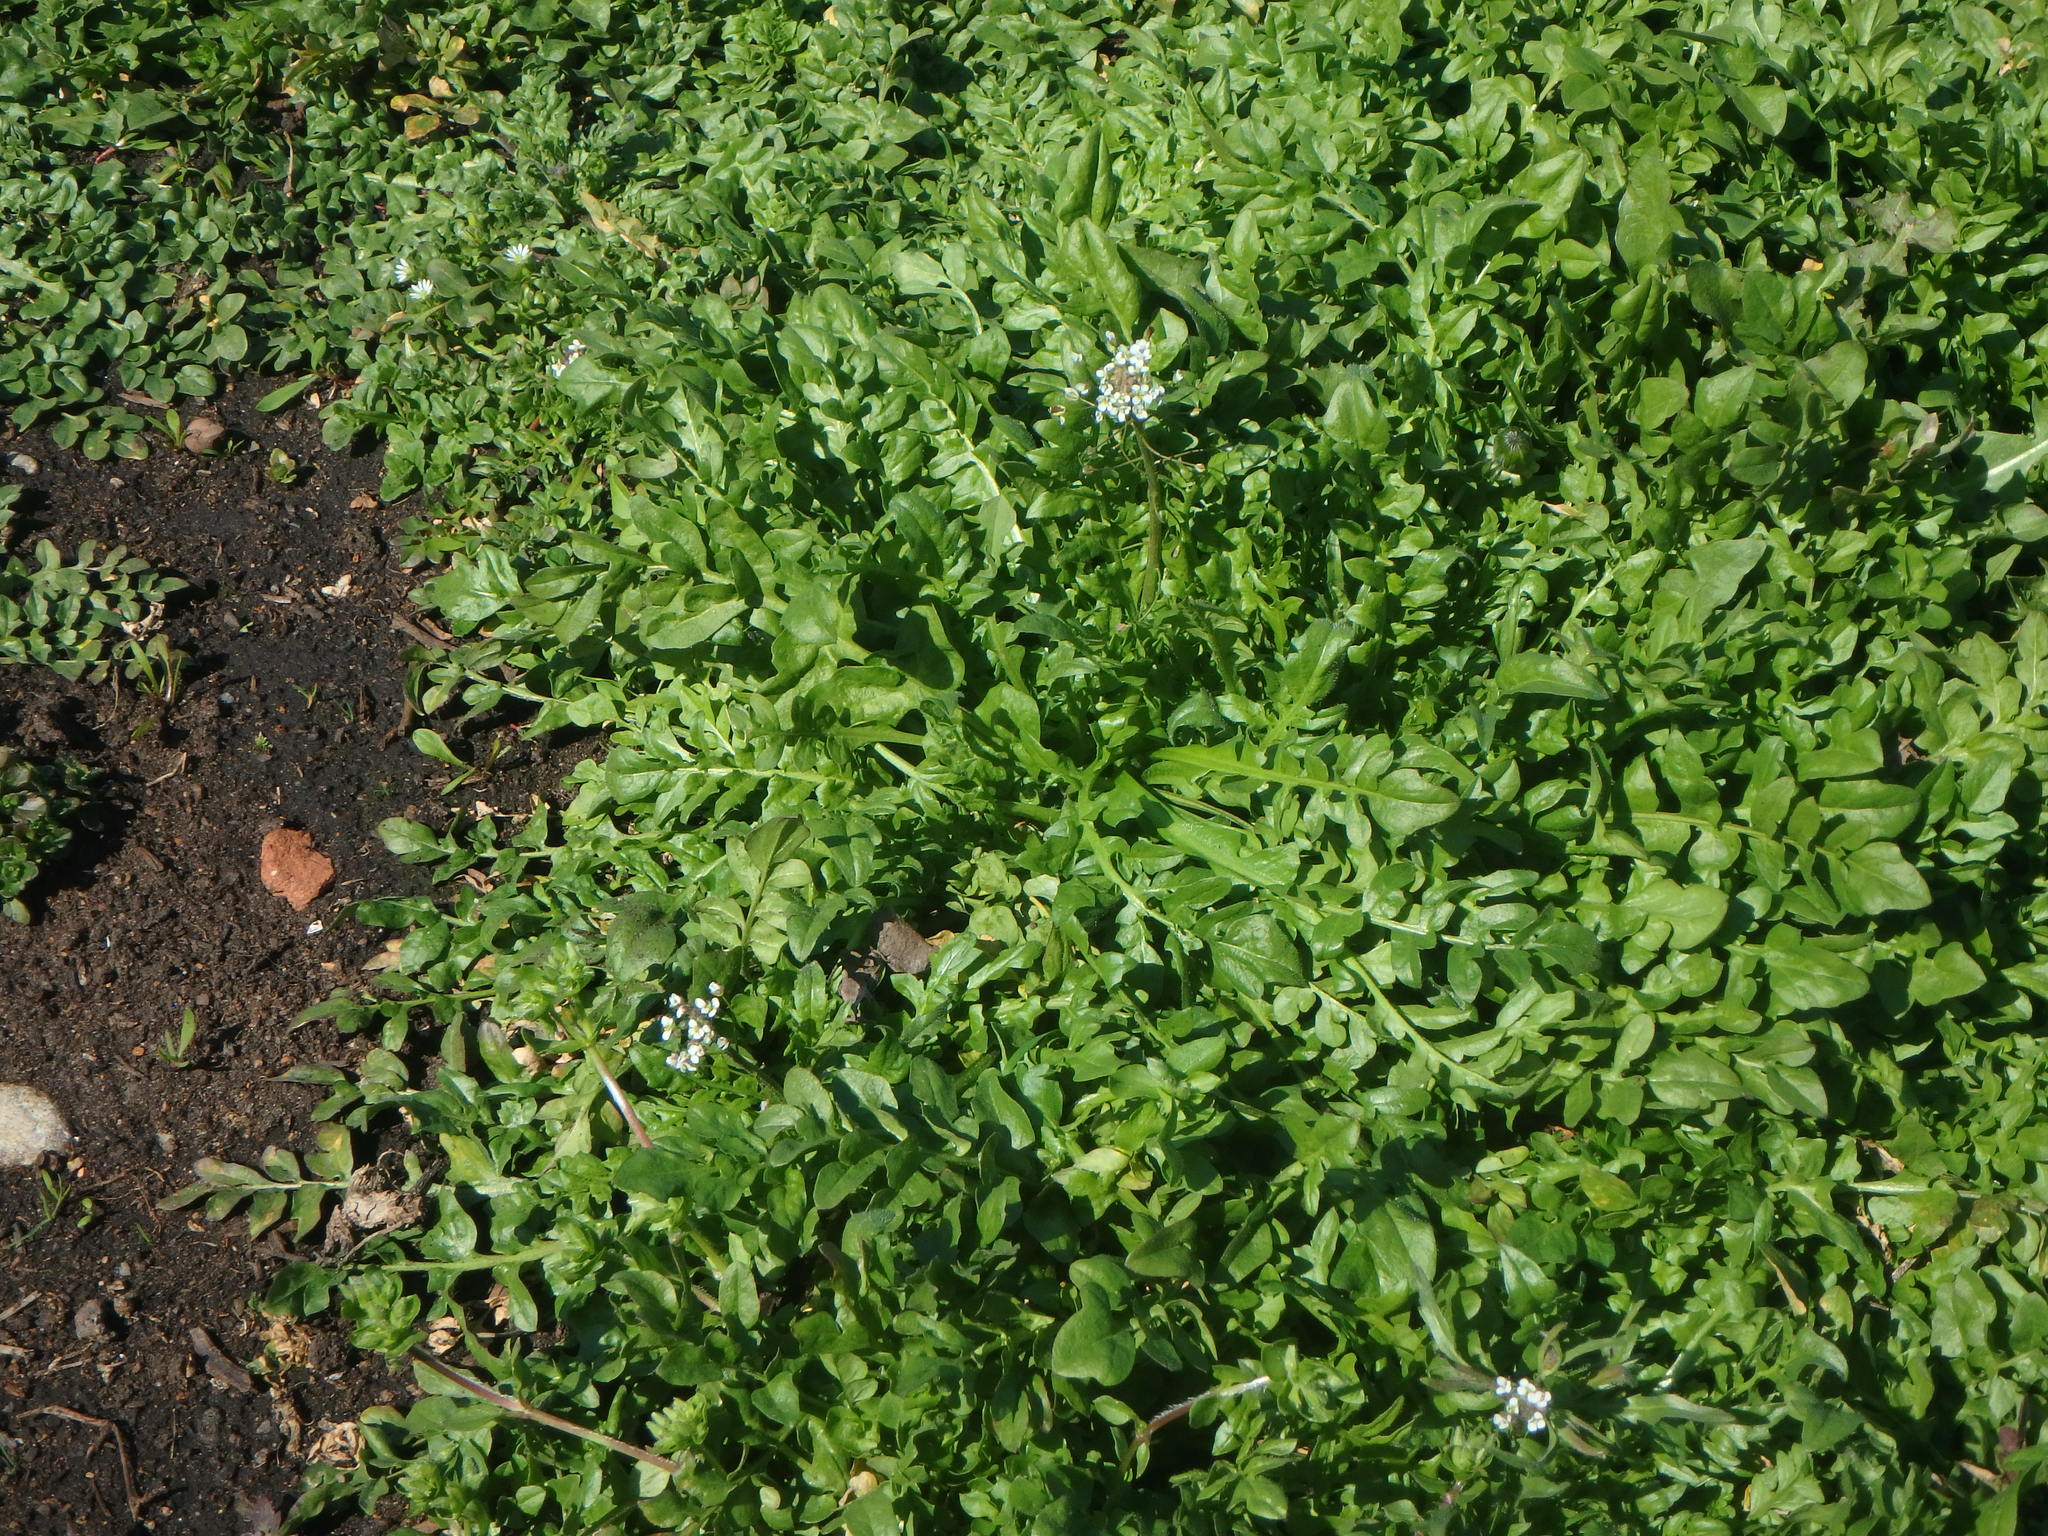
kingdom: Plantae
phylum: Tracheophyta
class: Magnoliopsida
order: Brassicales
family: Brassicaceae
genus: Capsella
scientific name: Capsella bursa-pastoris
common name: Shepherd's purse
